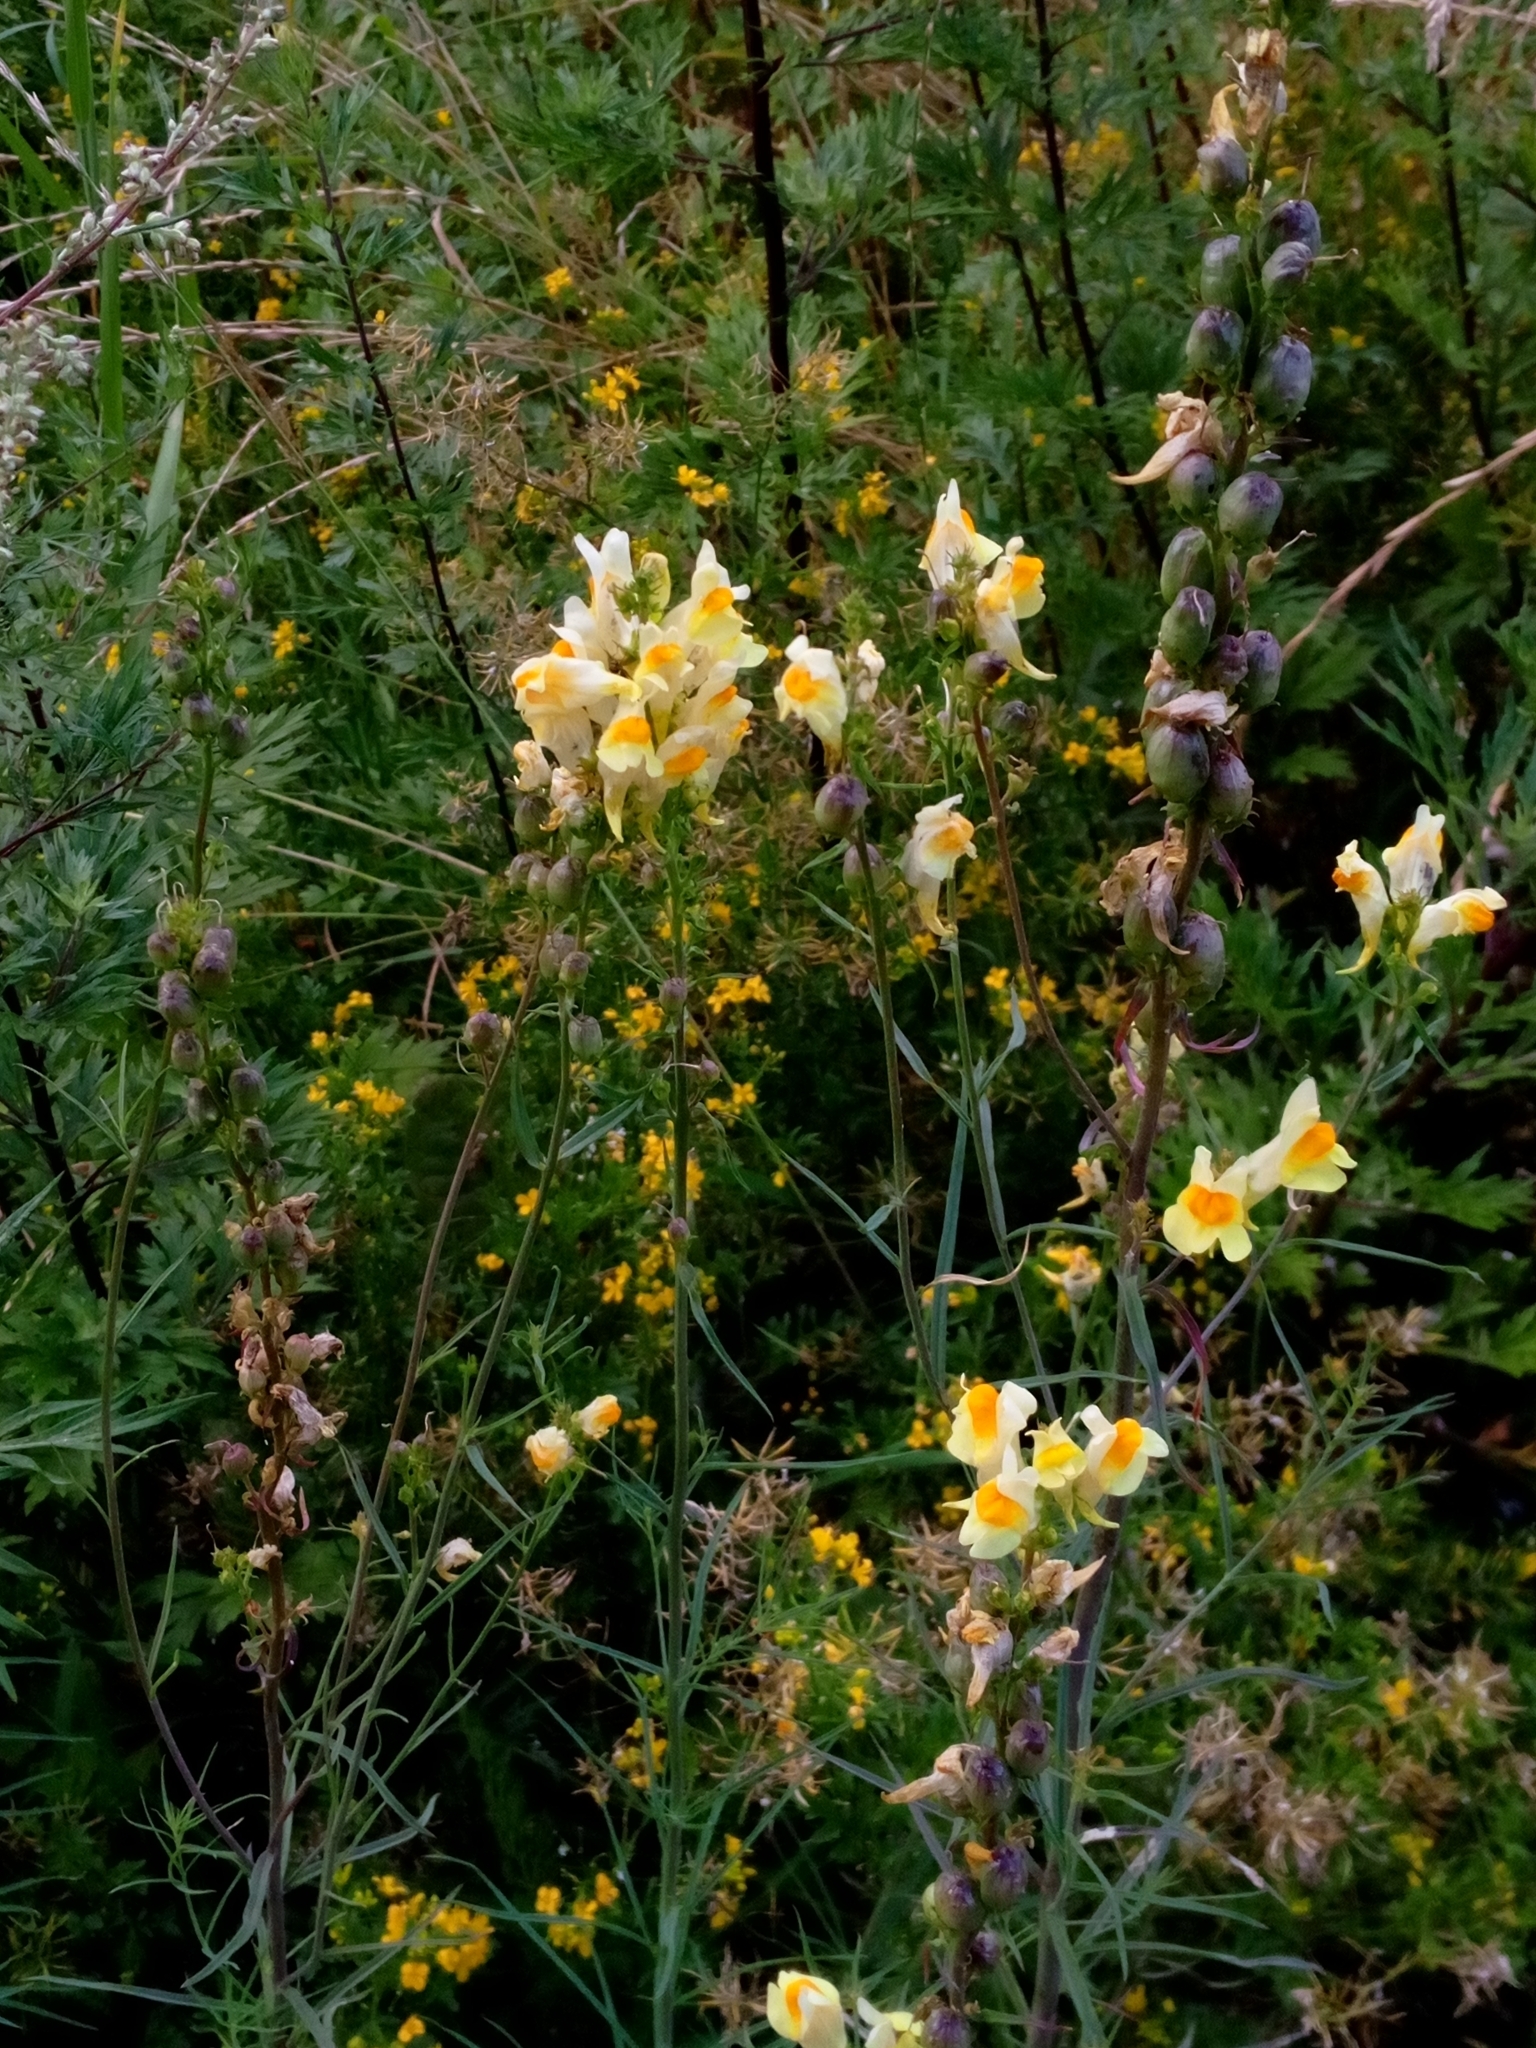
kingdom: Plantae
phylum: Tracheophyta
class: Magnoliopsida
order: Lamiales
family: Plantaginaceae
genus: Linaria
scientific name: Linaria vulgaris
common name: Butter and eggs
